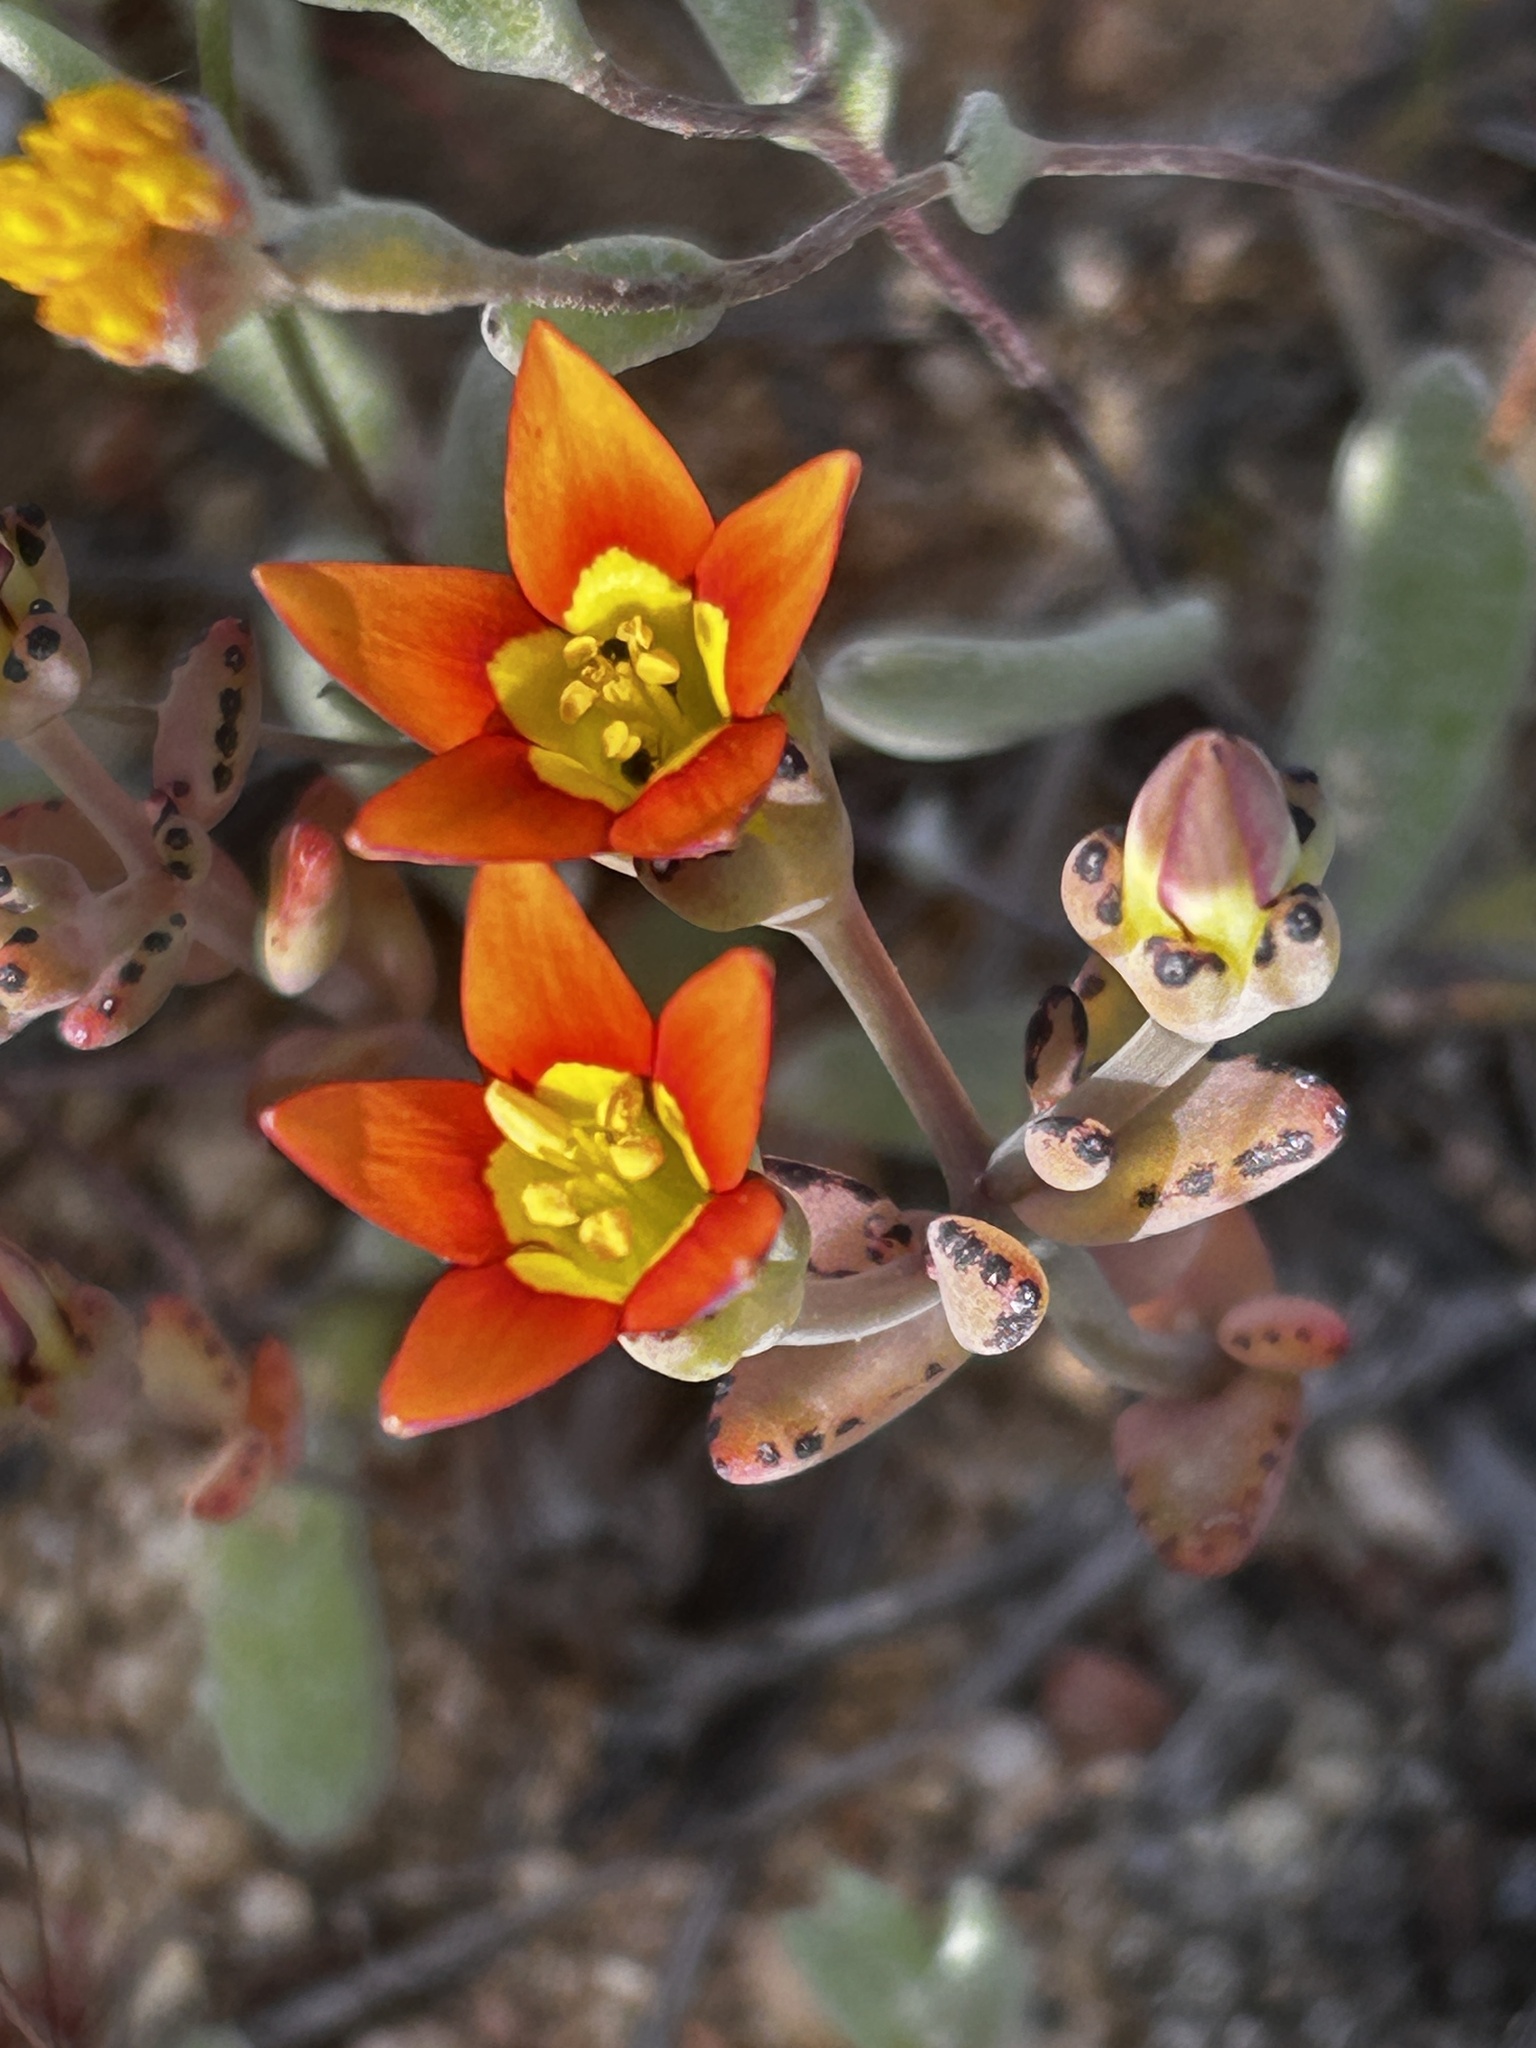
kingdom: Plantae
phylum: Tracheophyta
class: Magnoliopsida
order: Saxifragales
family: Crassulaceae
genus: Crassula
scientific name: Crassula dichotoma
